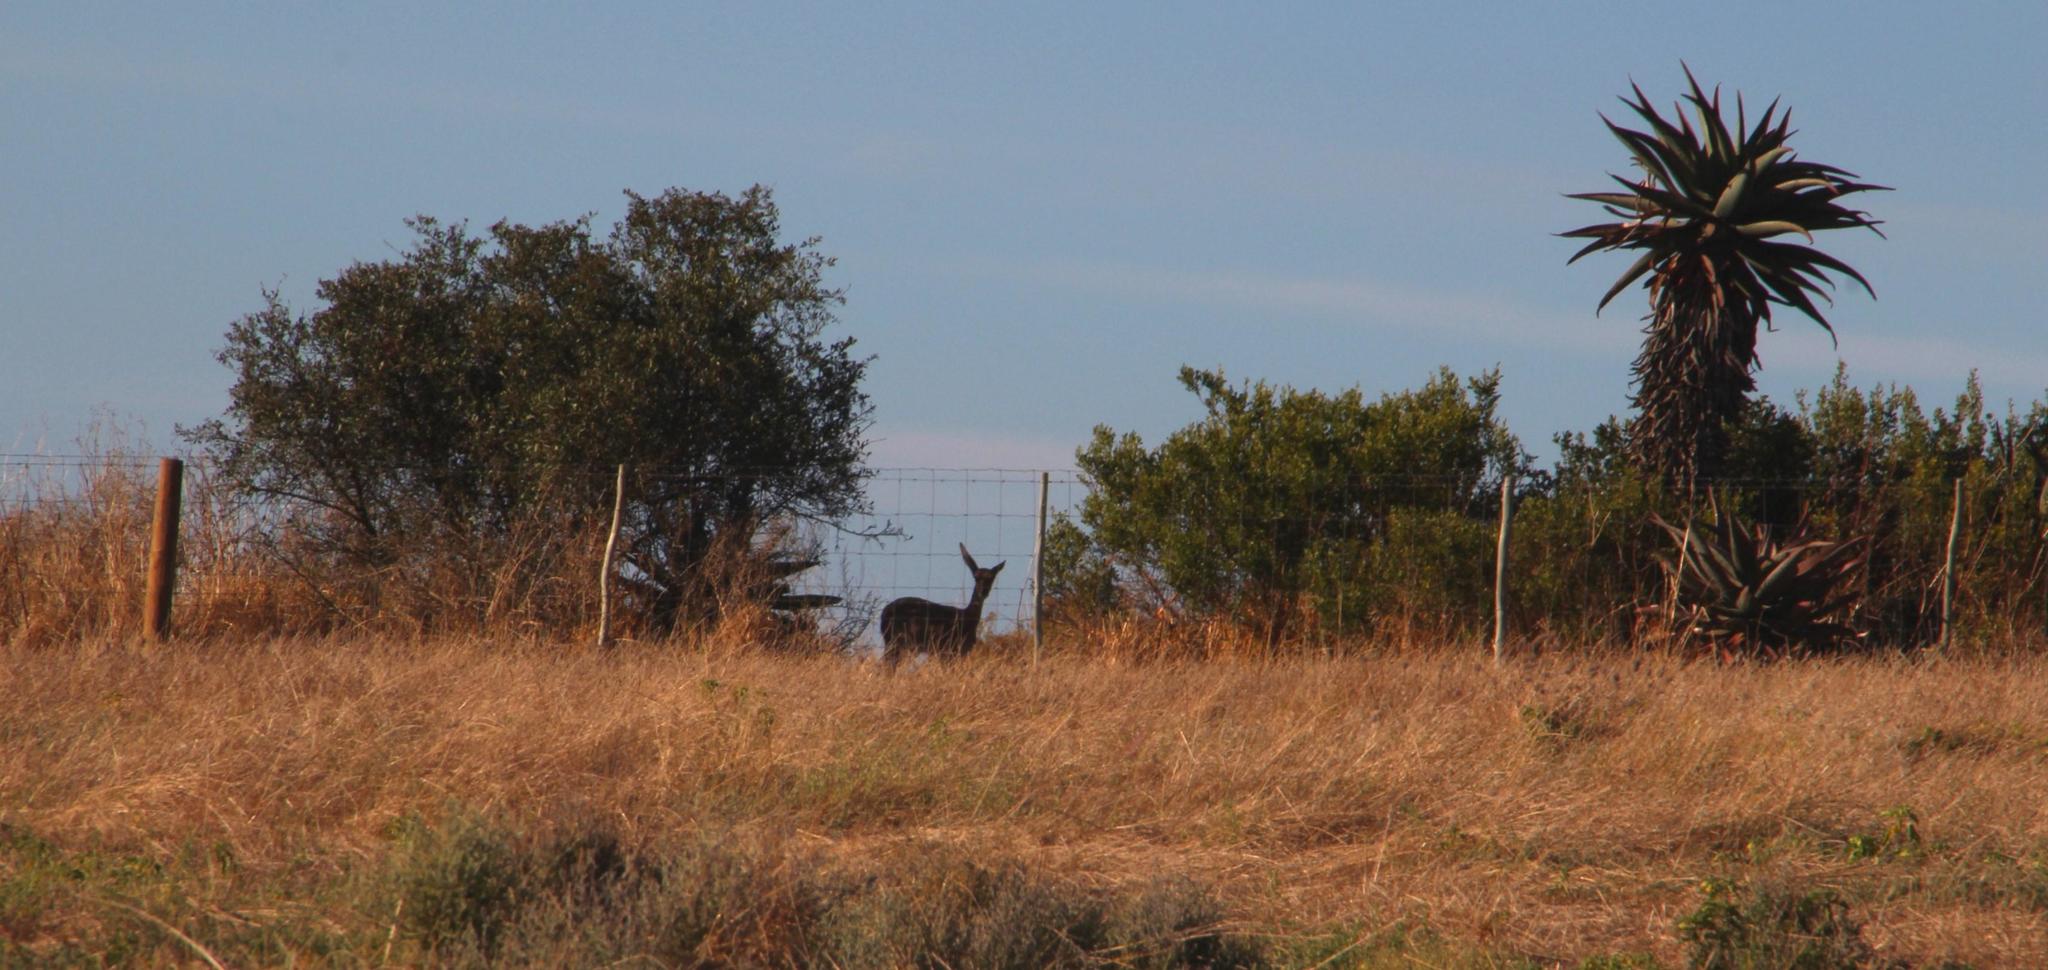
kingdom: Animalia
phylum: Chordata
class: Mammalia
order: Artiodactyla
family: Bovidae
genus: Pelea
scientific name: Pelea capreolus
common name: Common rhebok
